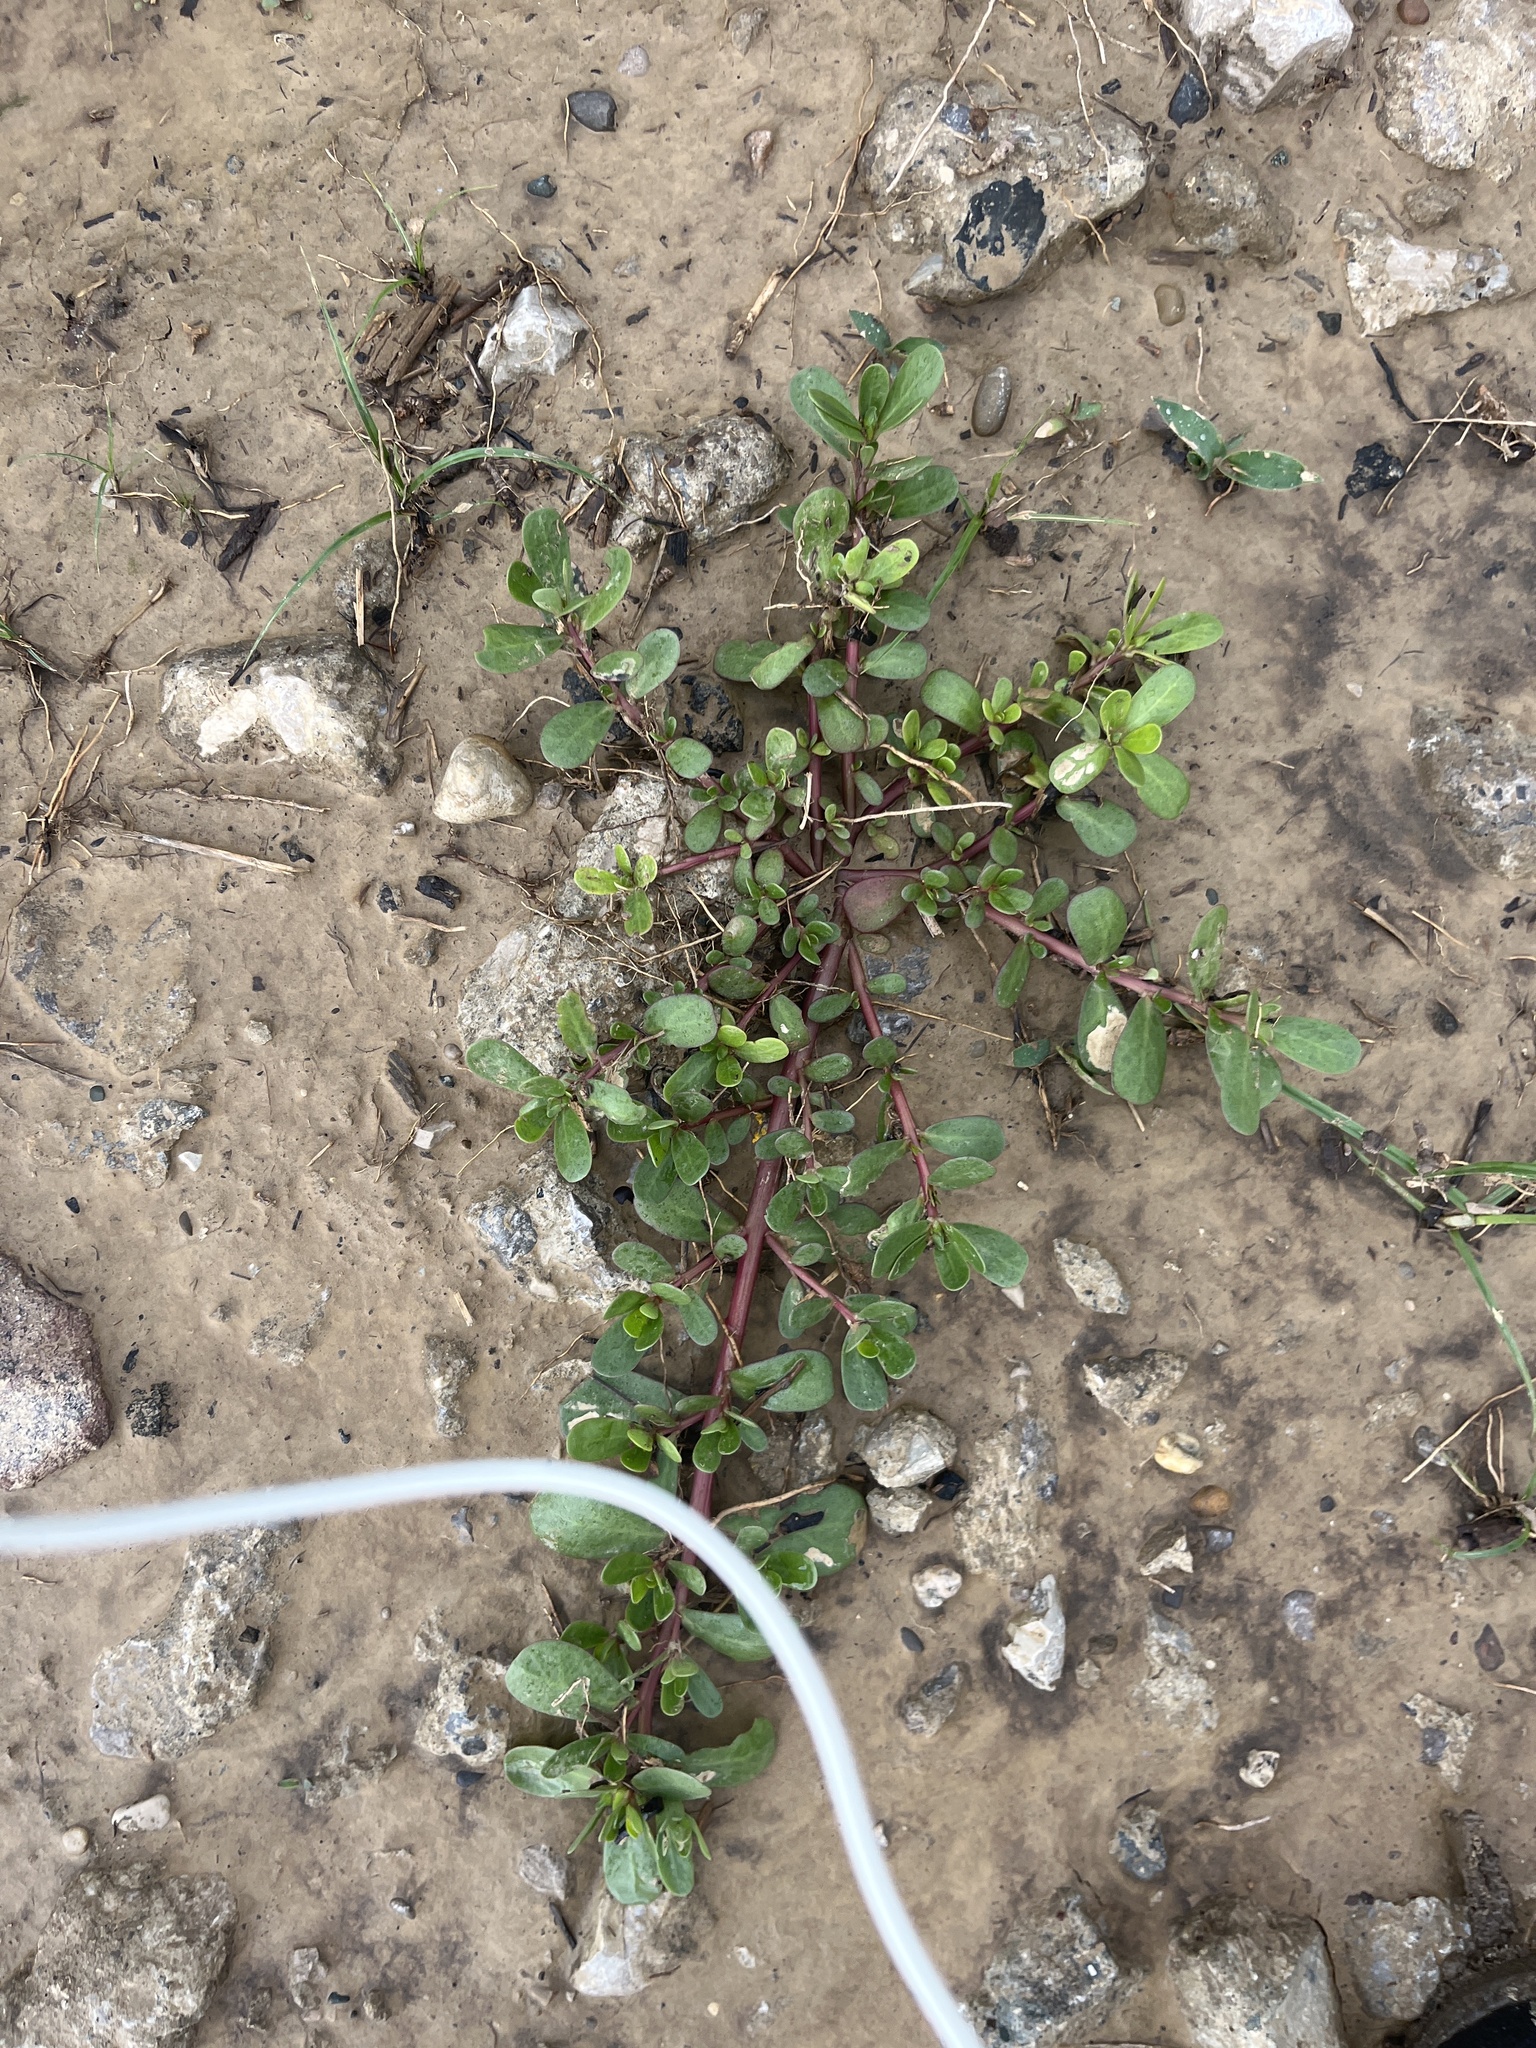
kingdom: Plantae
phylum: Tracheophyta
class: Magnoliopsida
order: Caryophyllales
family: Portulacaceae
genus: Portulaca
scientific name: Portulaca oleracea
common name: Common purslane
